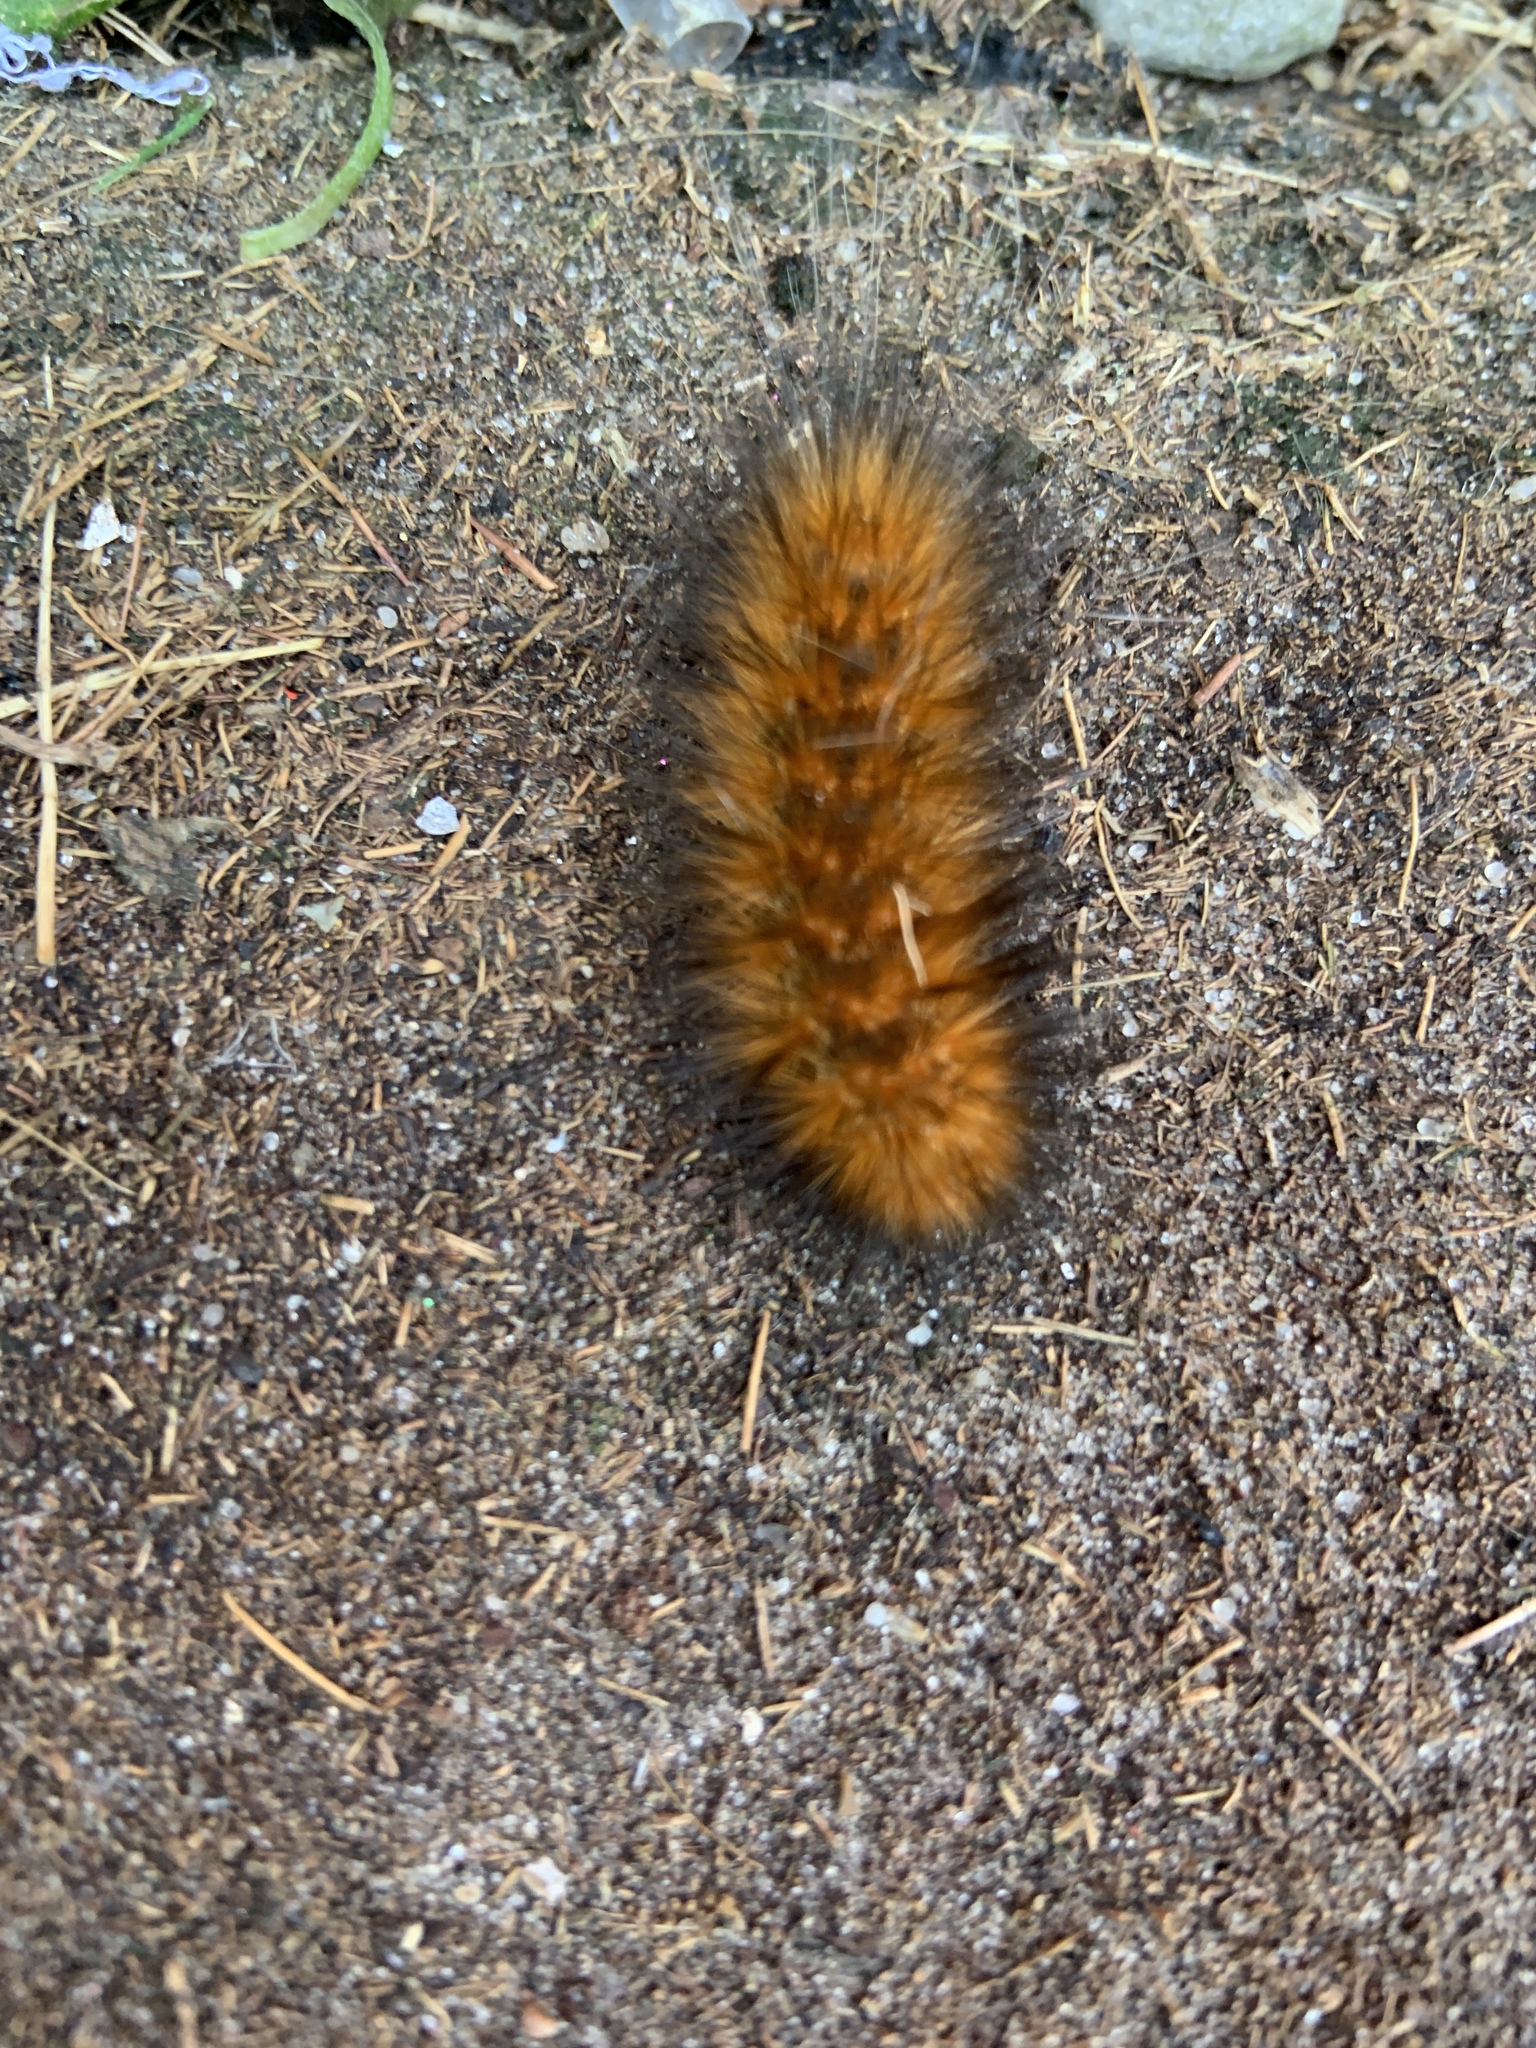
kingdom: Animalia
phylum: Arthropoda
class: Insecta
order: Lepidoptera
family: Erebidae
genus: Estigmene
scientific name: Estigmene acrea
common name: Salt marsh moth
